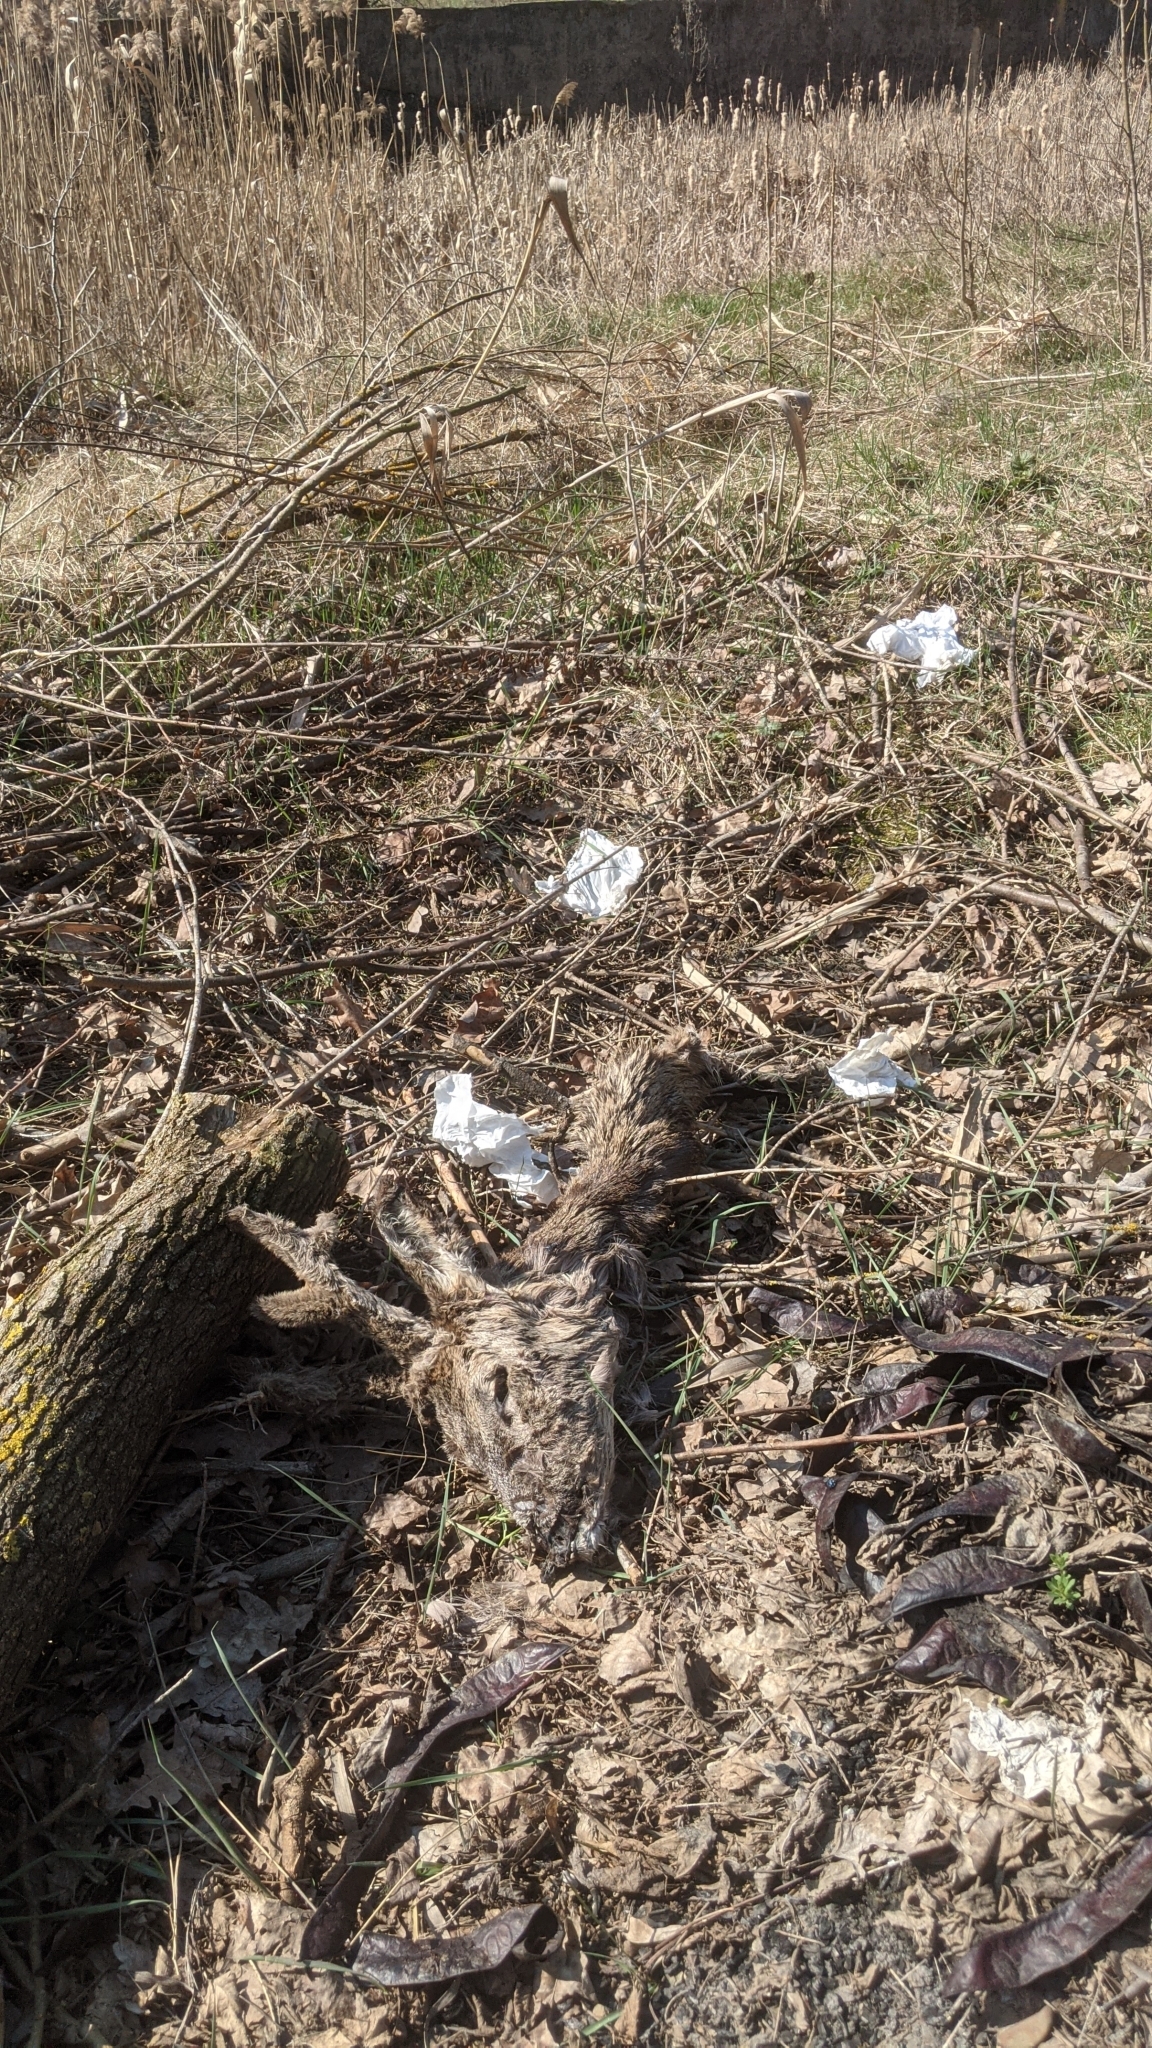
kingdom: Animalia
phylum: Chordata
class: Mammalia
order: Artiodactyla
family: Cervidae
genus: Capreolus
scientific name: Capreolus capreolus
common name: Western roe deer
